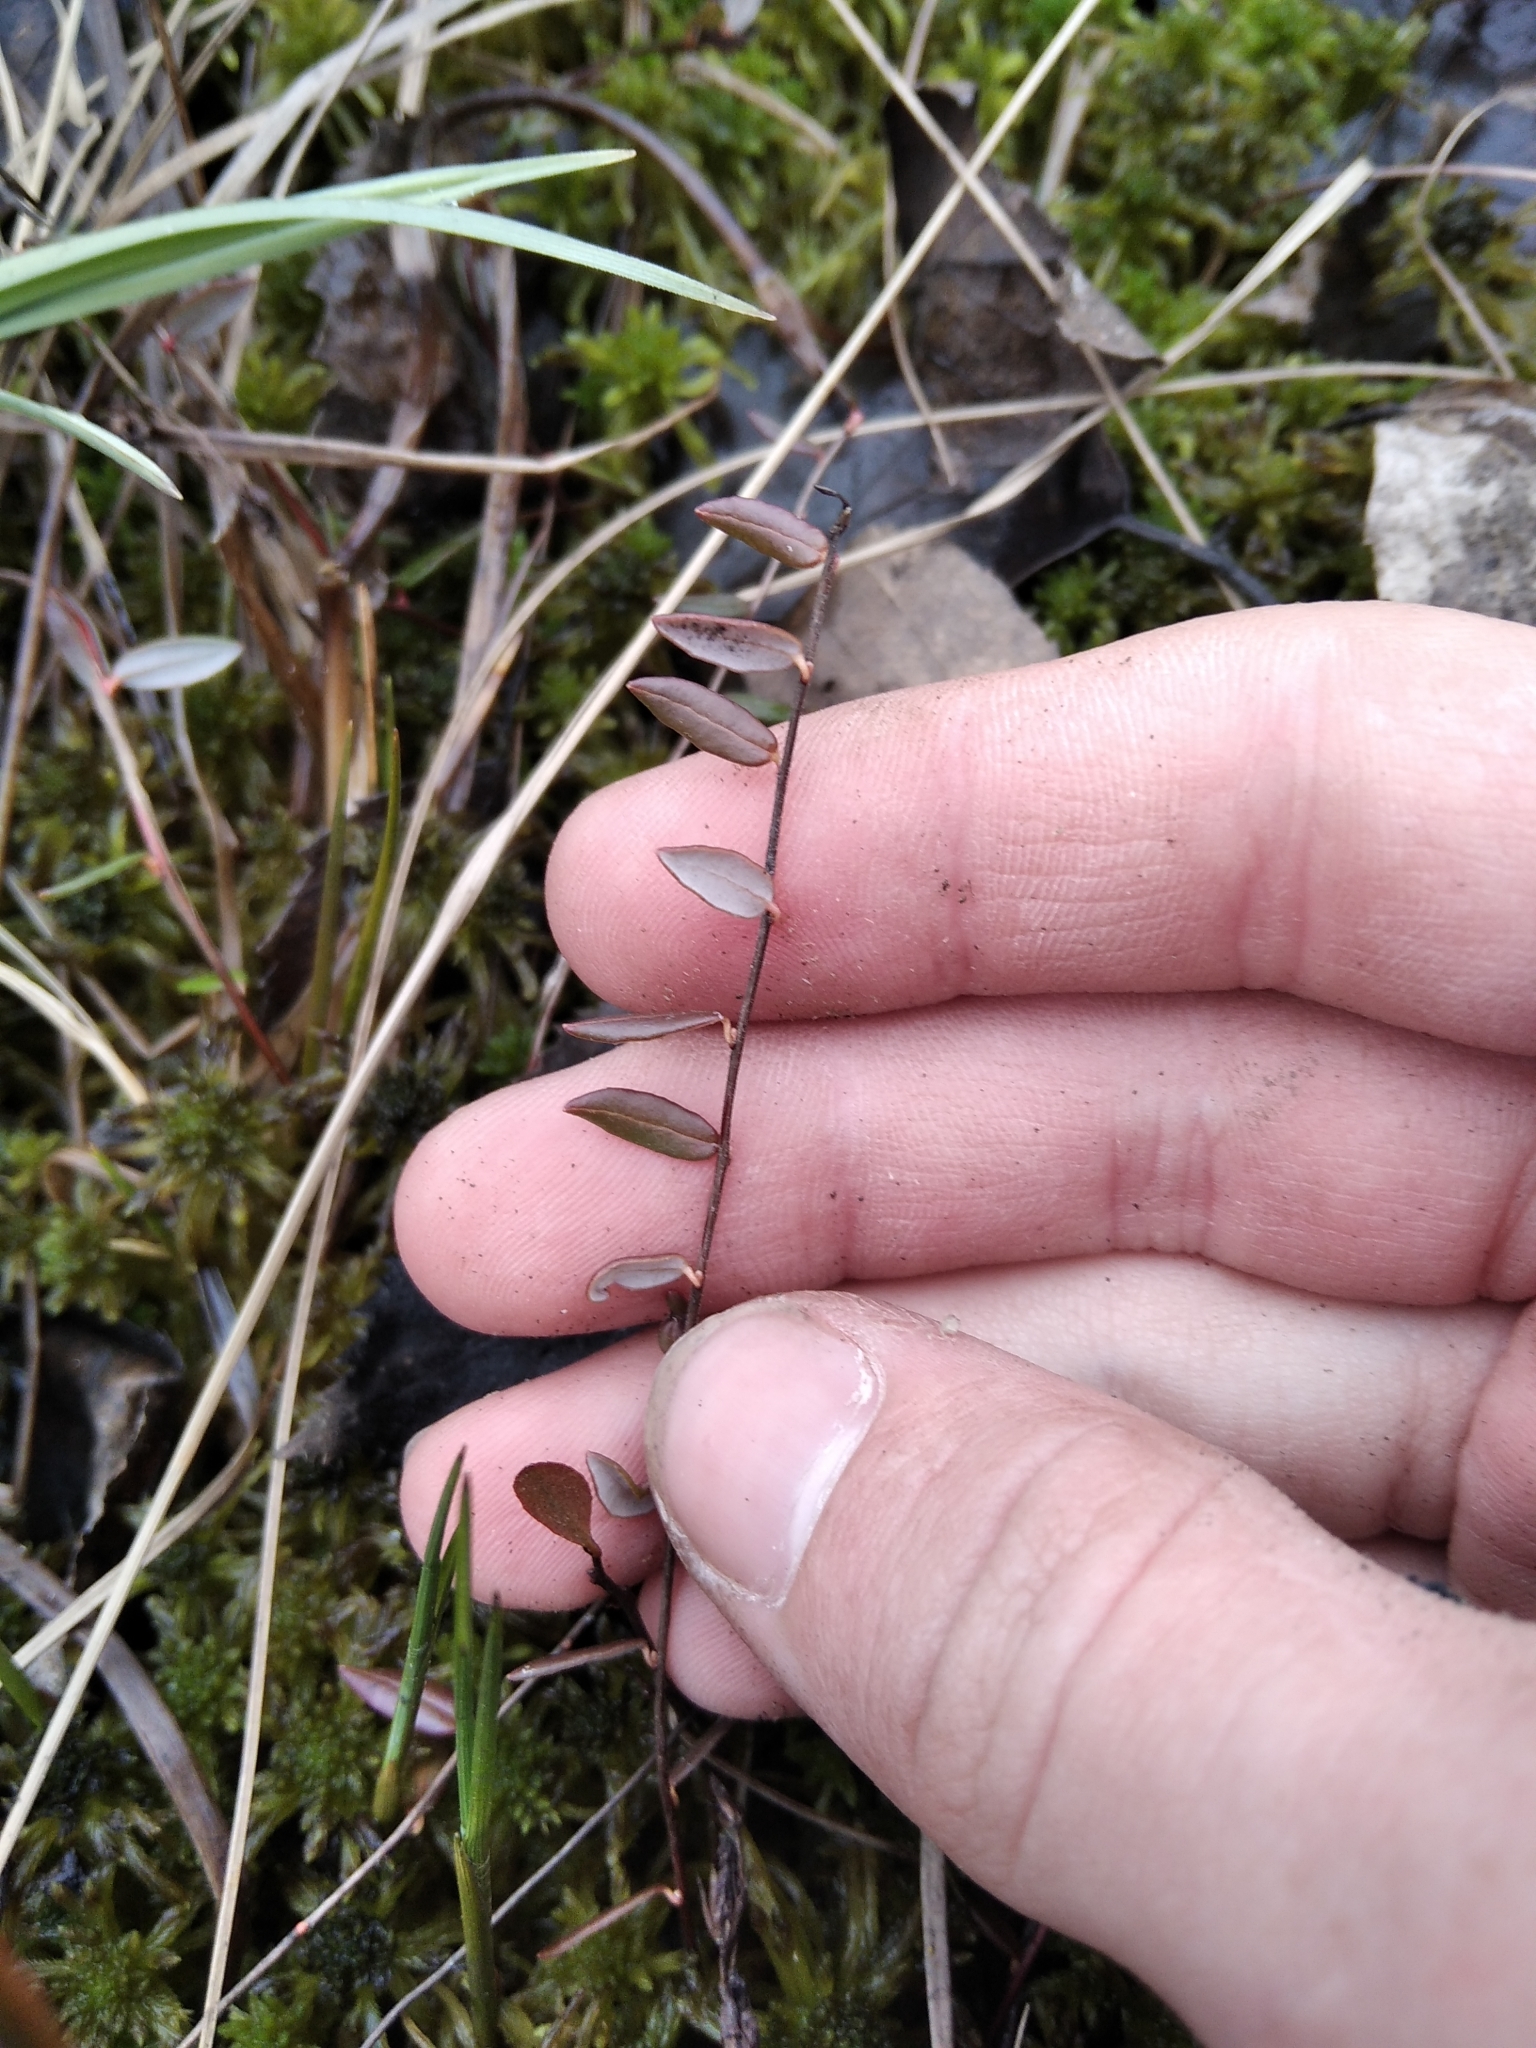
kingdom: Plantae
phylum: Tracheophyta
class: Magnoliopsida
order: Ericales
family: Ericaceae
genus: Vaccinium
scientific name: Vaccinium oxycoccos
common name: Cranberry
